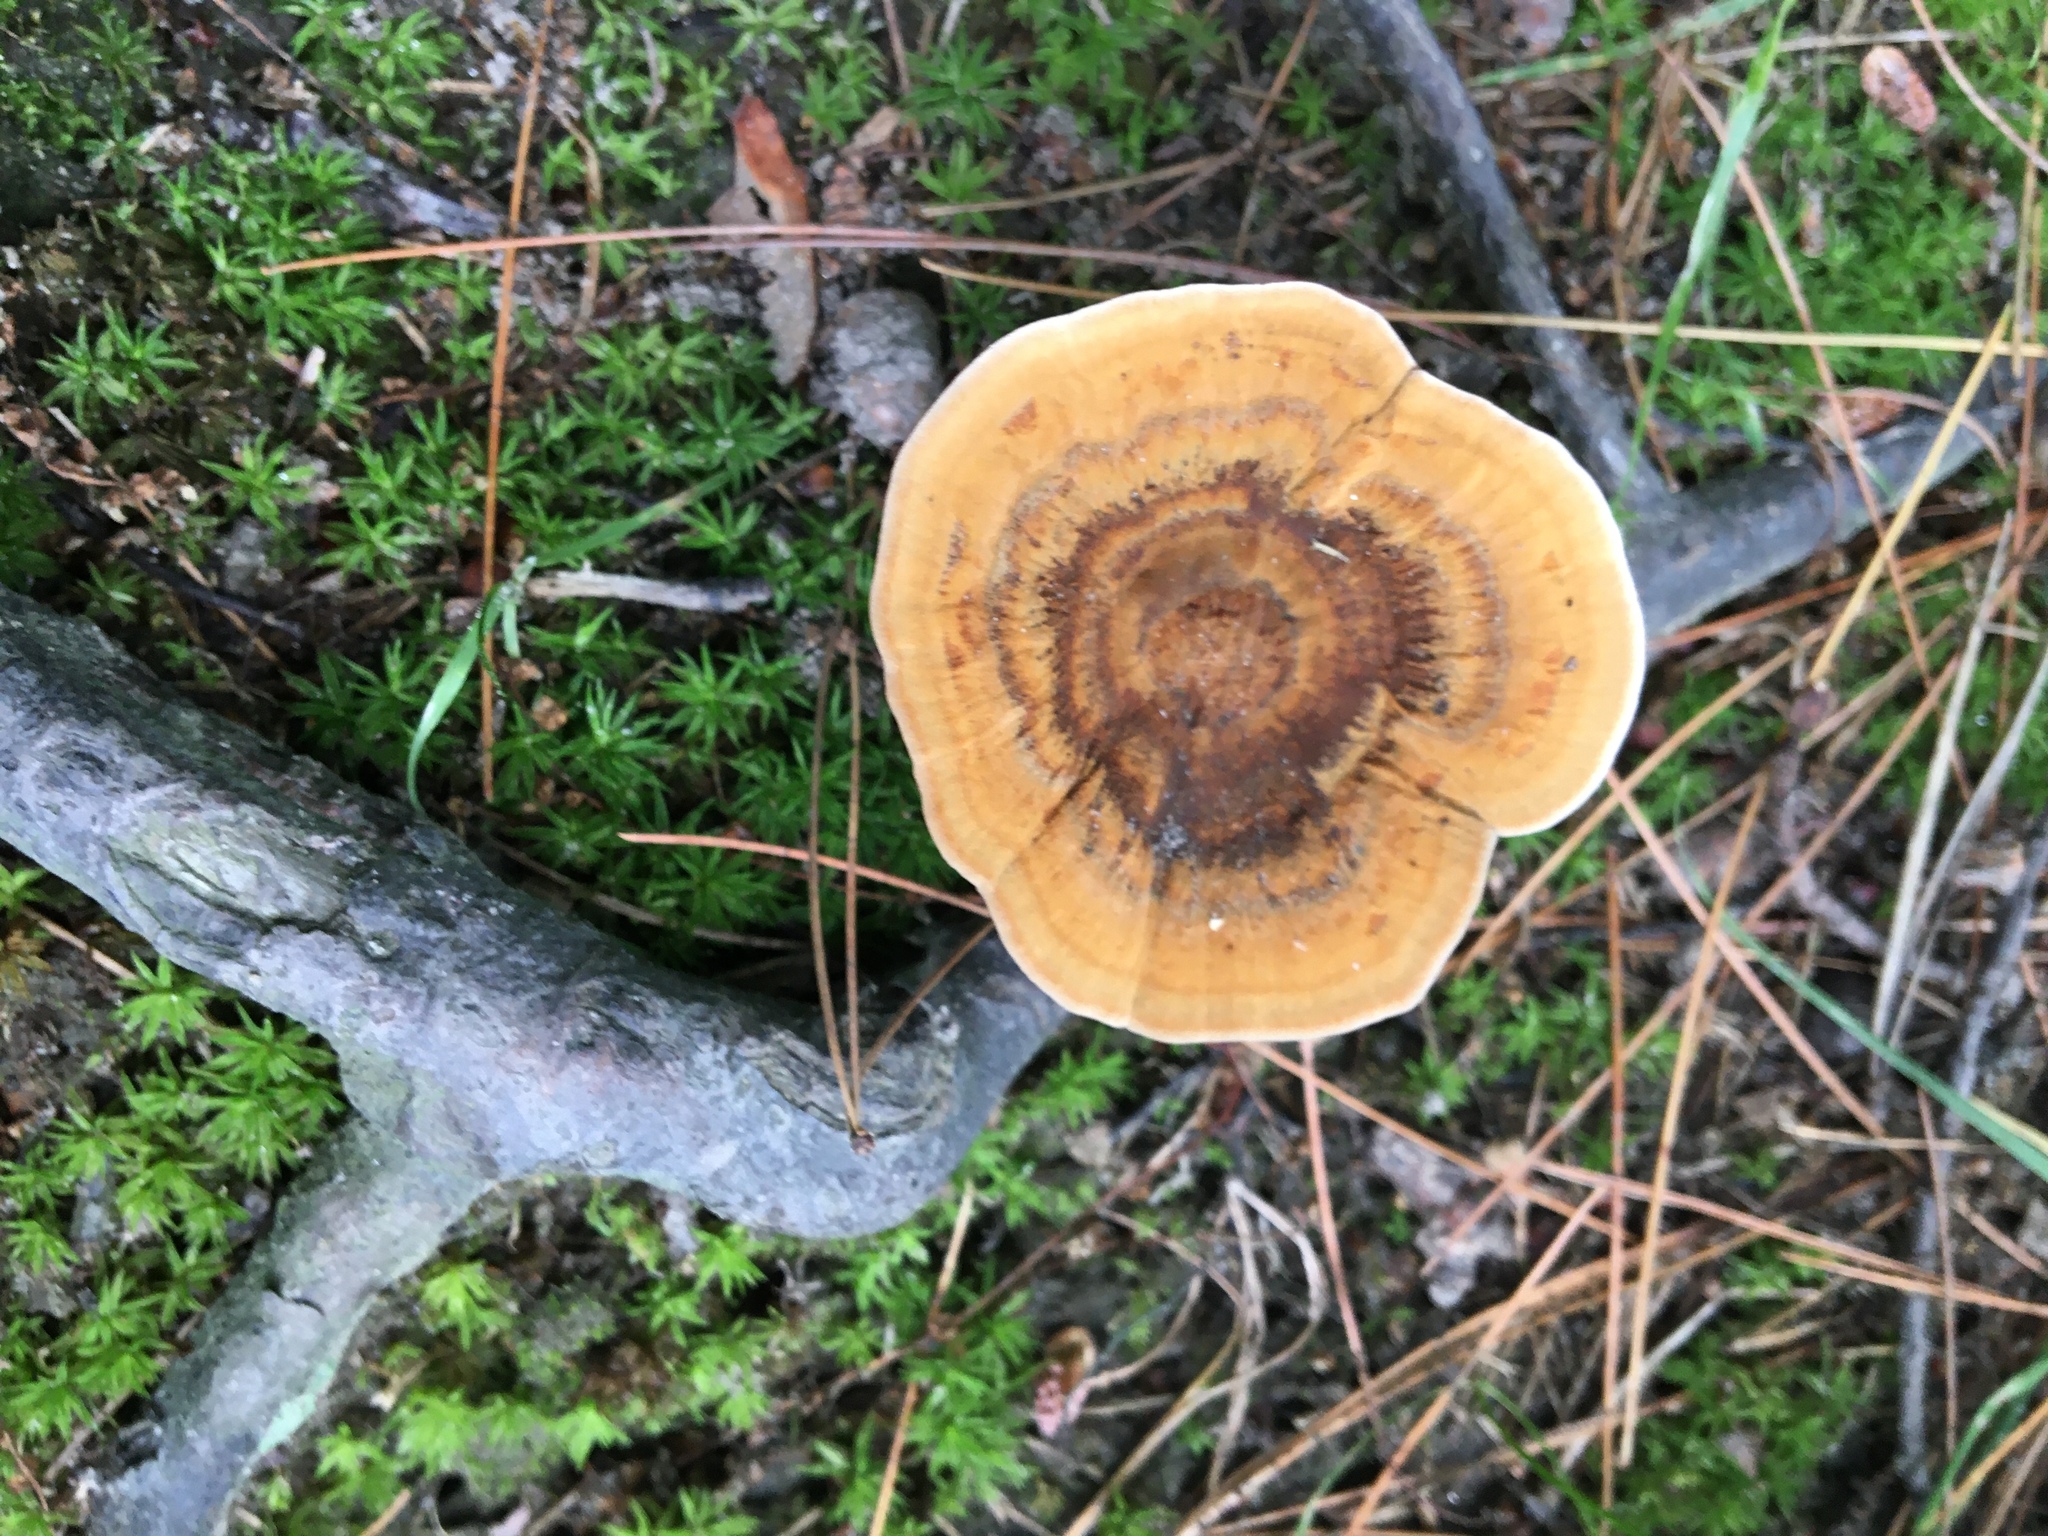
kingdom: Fungi
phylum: Basidiomycota
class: Agaricomycetes
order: Hymenochaetales
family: Hymenochaetaceae
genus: Coltricia
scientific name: Coltricia perennis
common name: Tiger's eye
